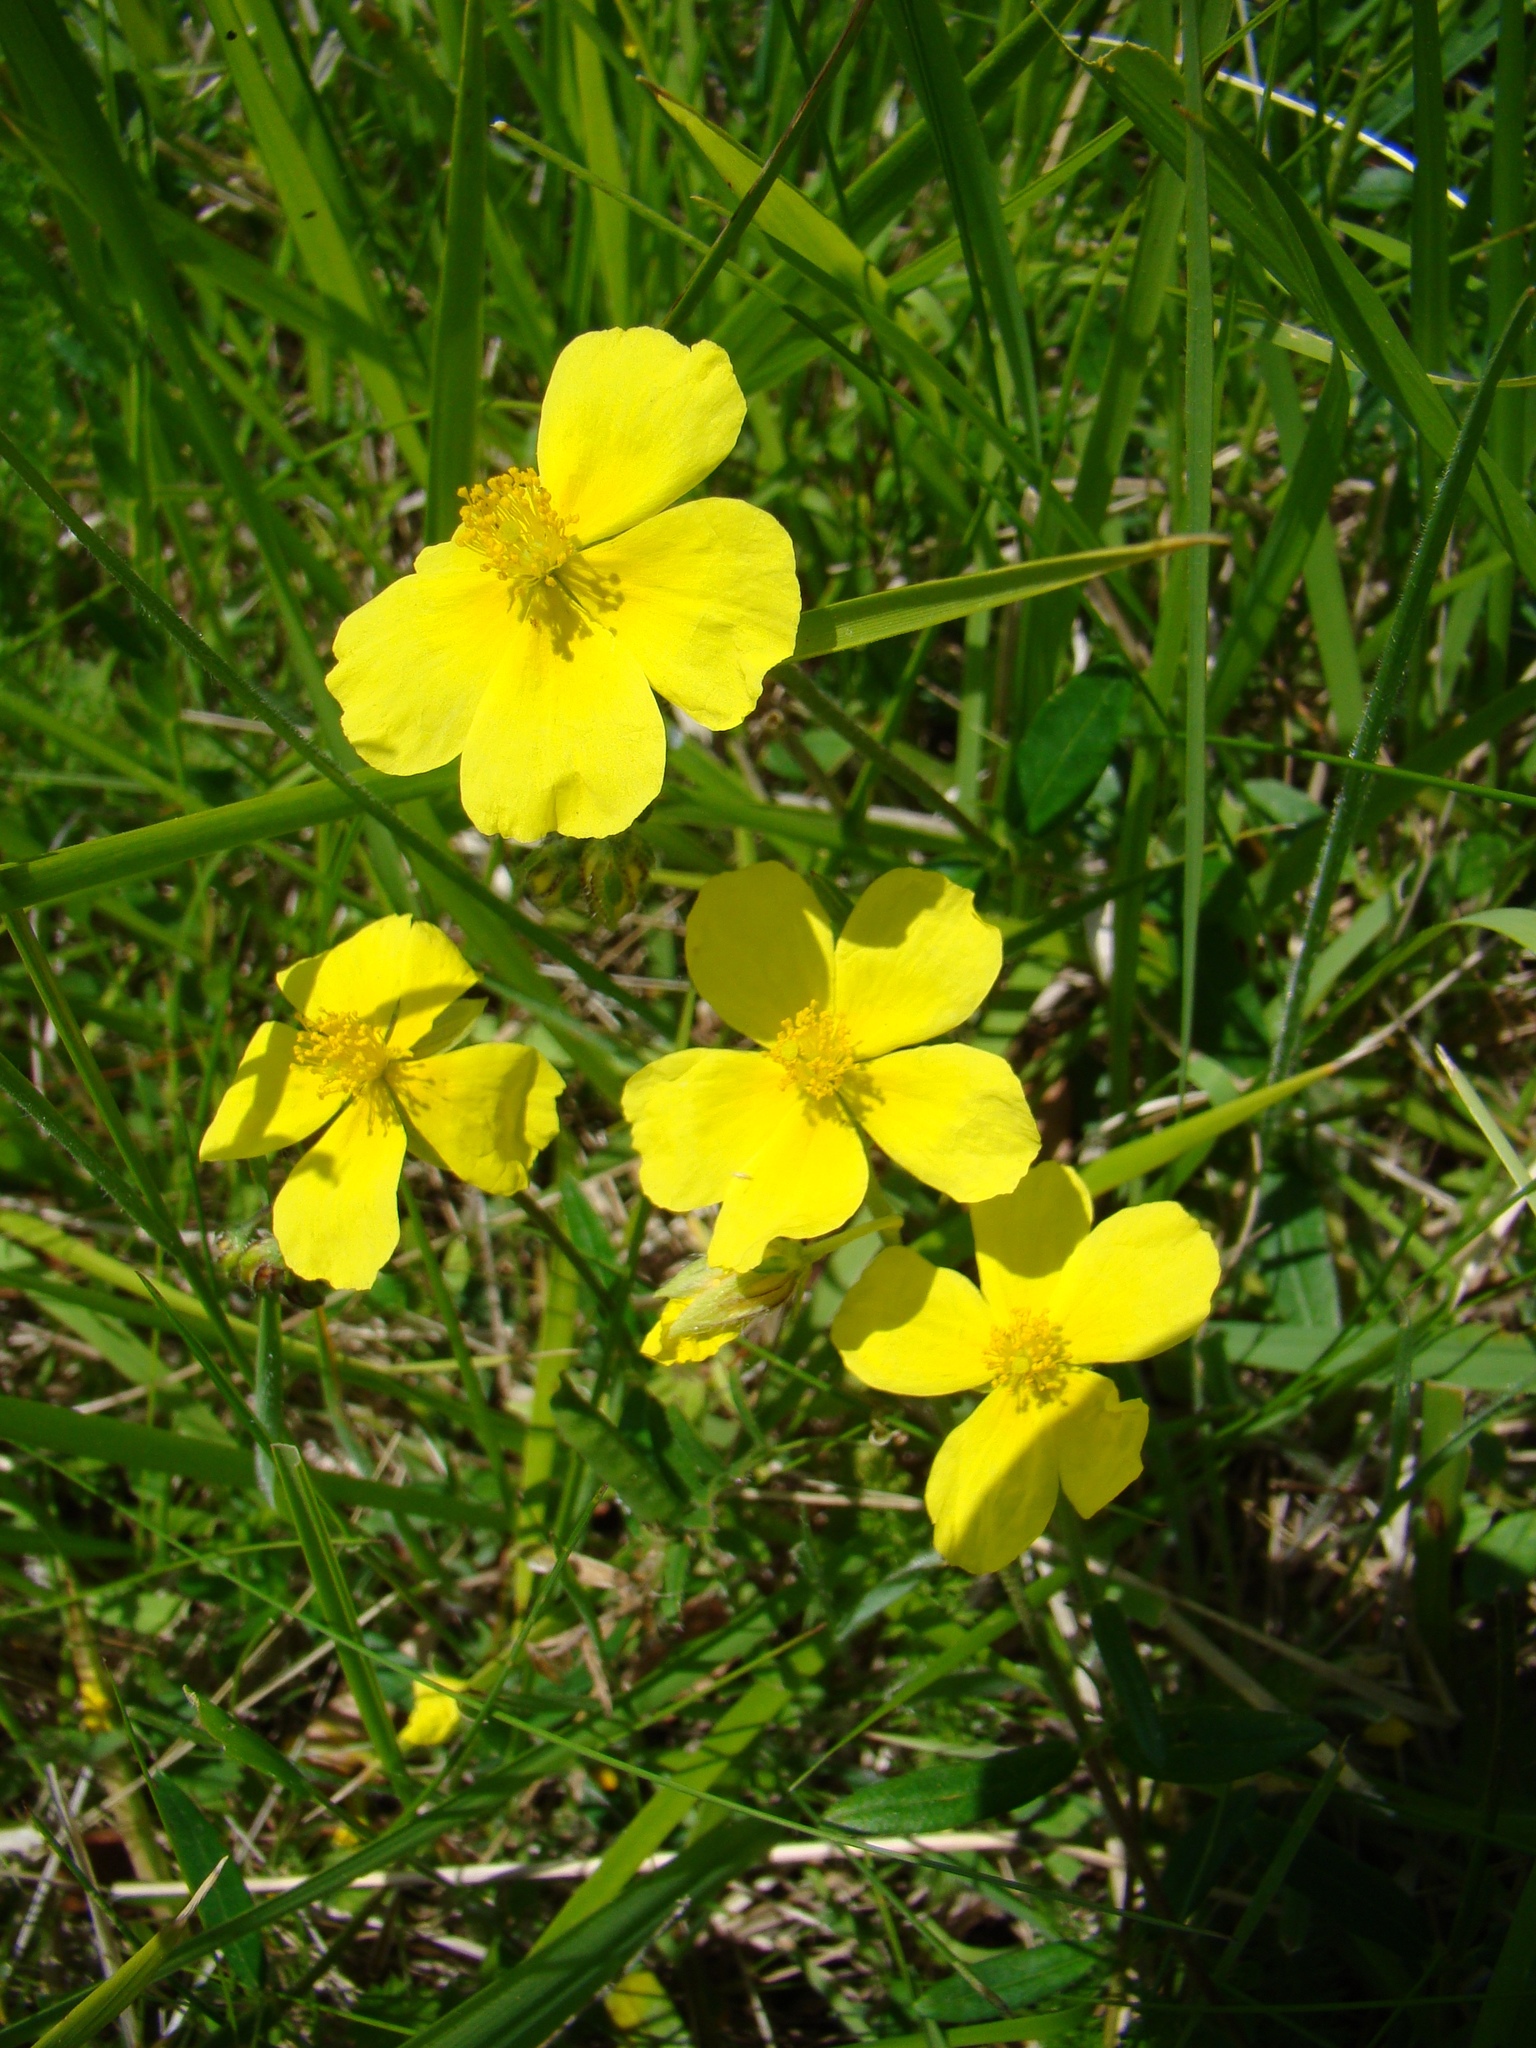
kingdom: Plantae
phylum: Tracheophyta
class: Magnoliopsida
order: Malvales
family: Cistaceae
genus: Helianthemum
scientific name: Helianthemum nummularium
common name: Common rock-rose
